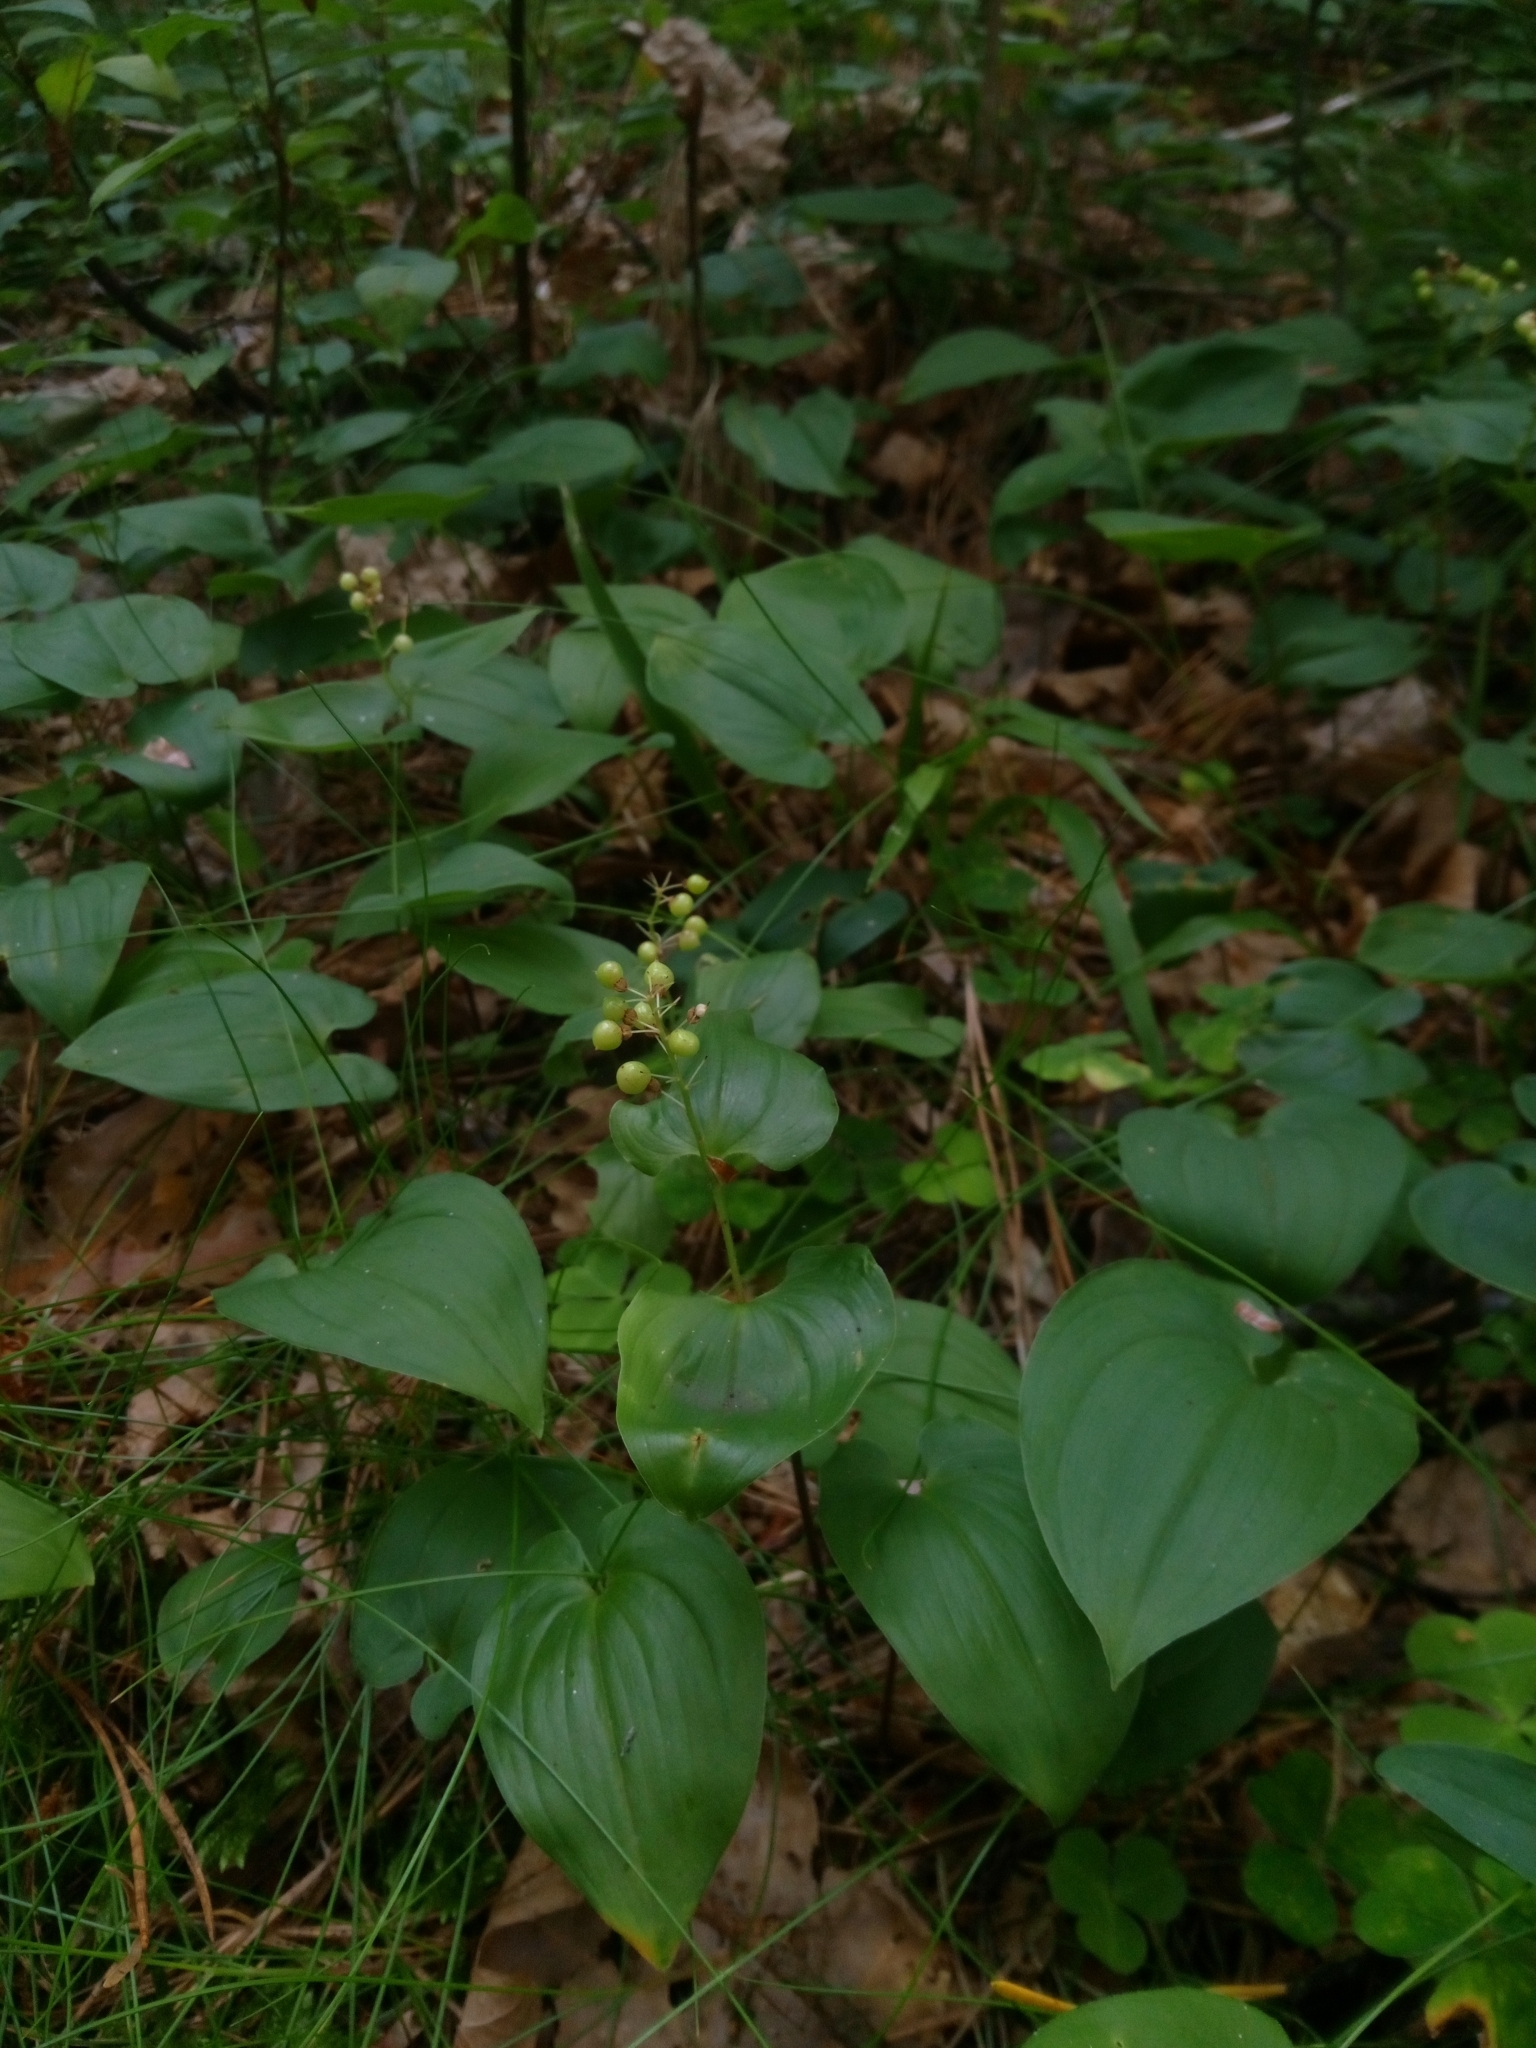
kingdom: Plantae
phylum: Tracheophyta
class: Liliopsida
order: Asparagales
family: Asparagaceae
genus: Maianthemum
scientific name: Maianthemum bifolium
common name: May lily
